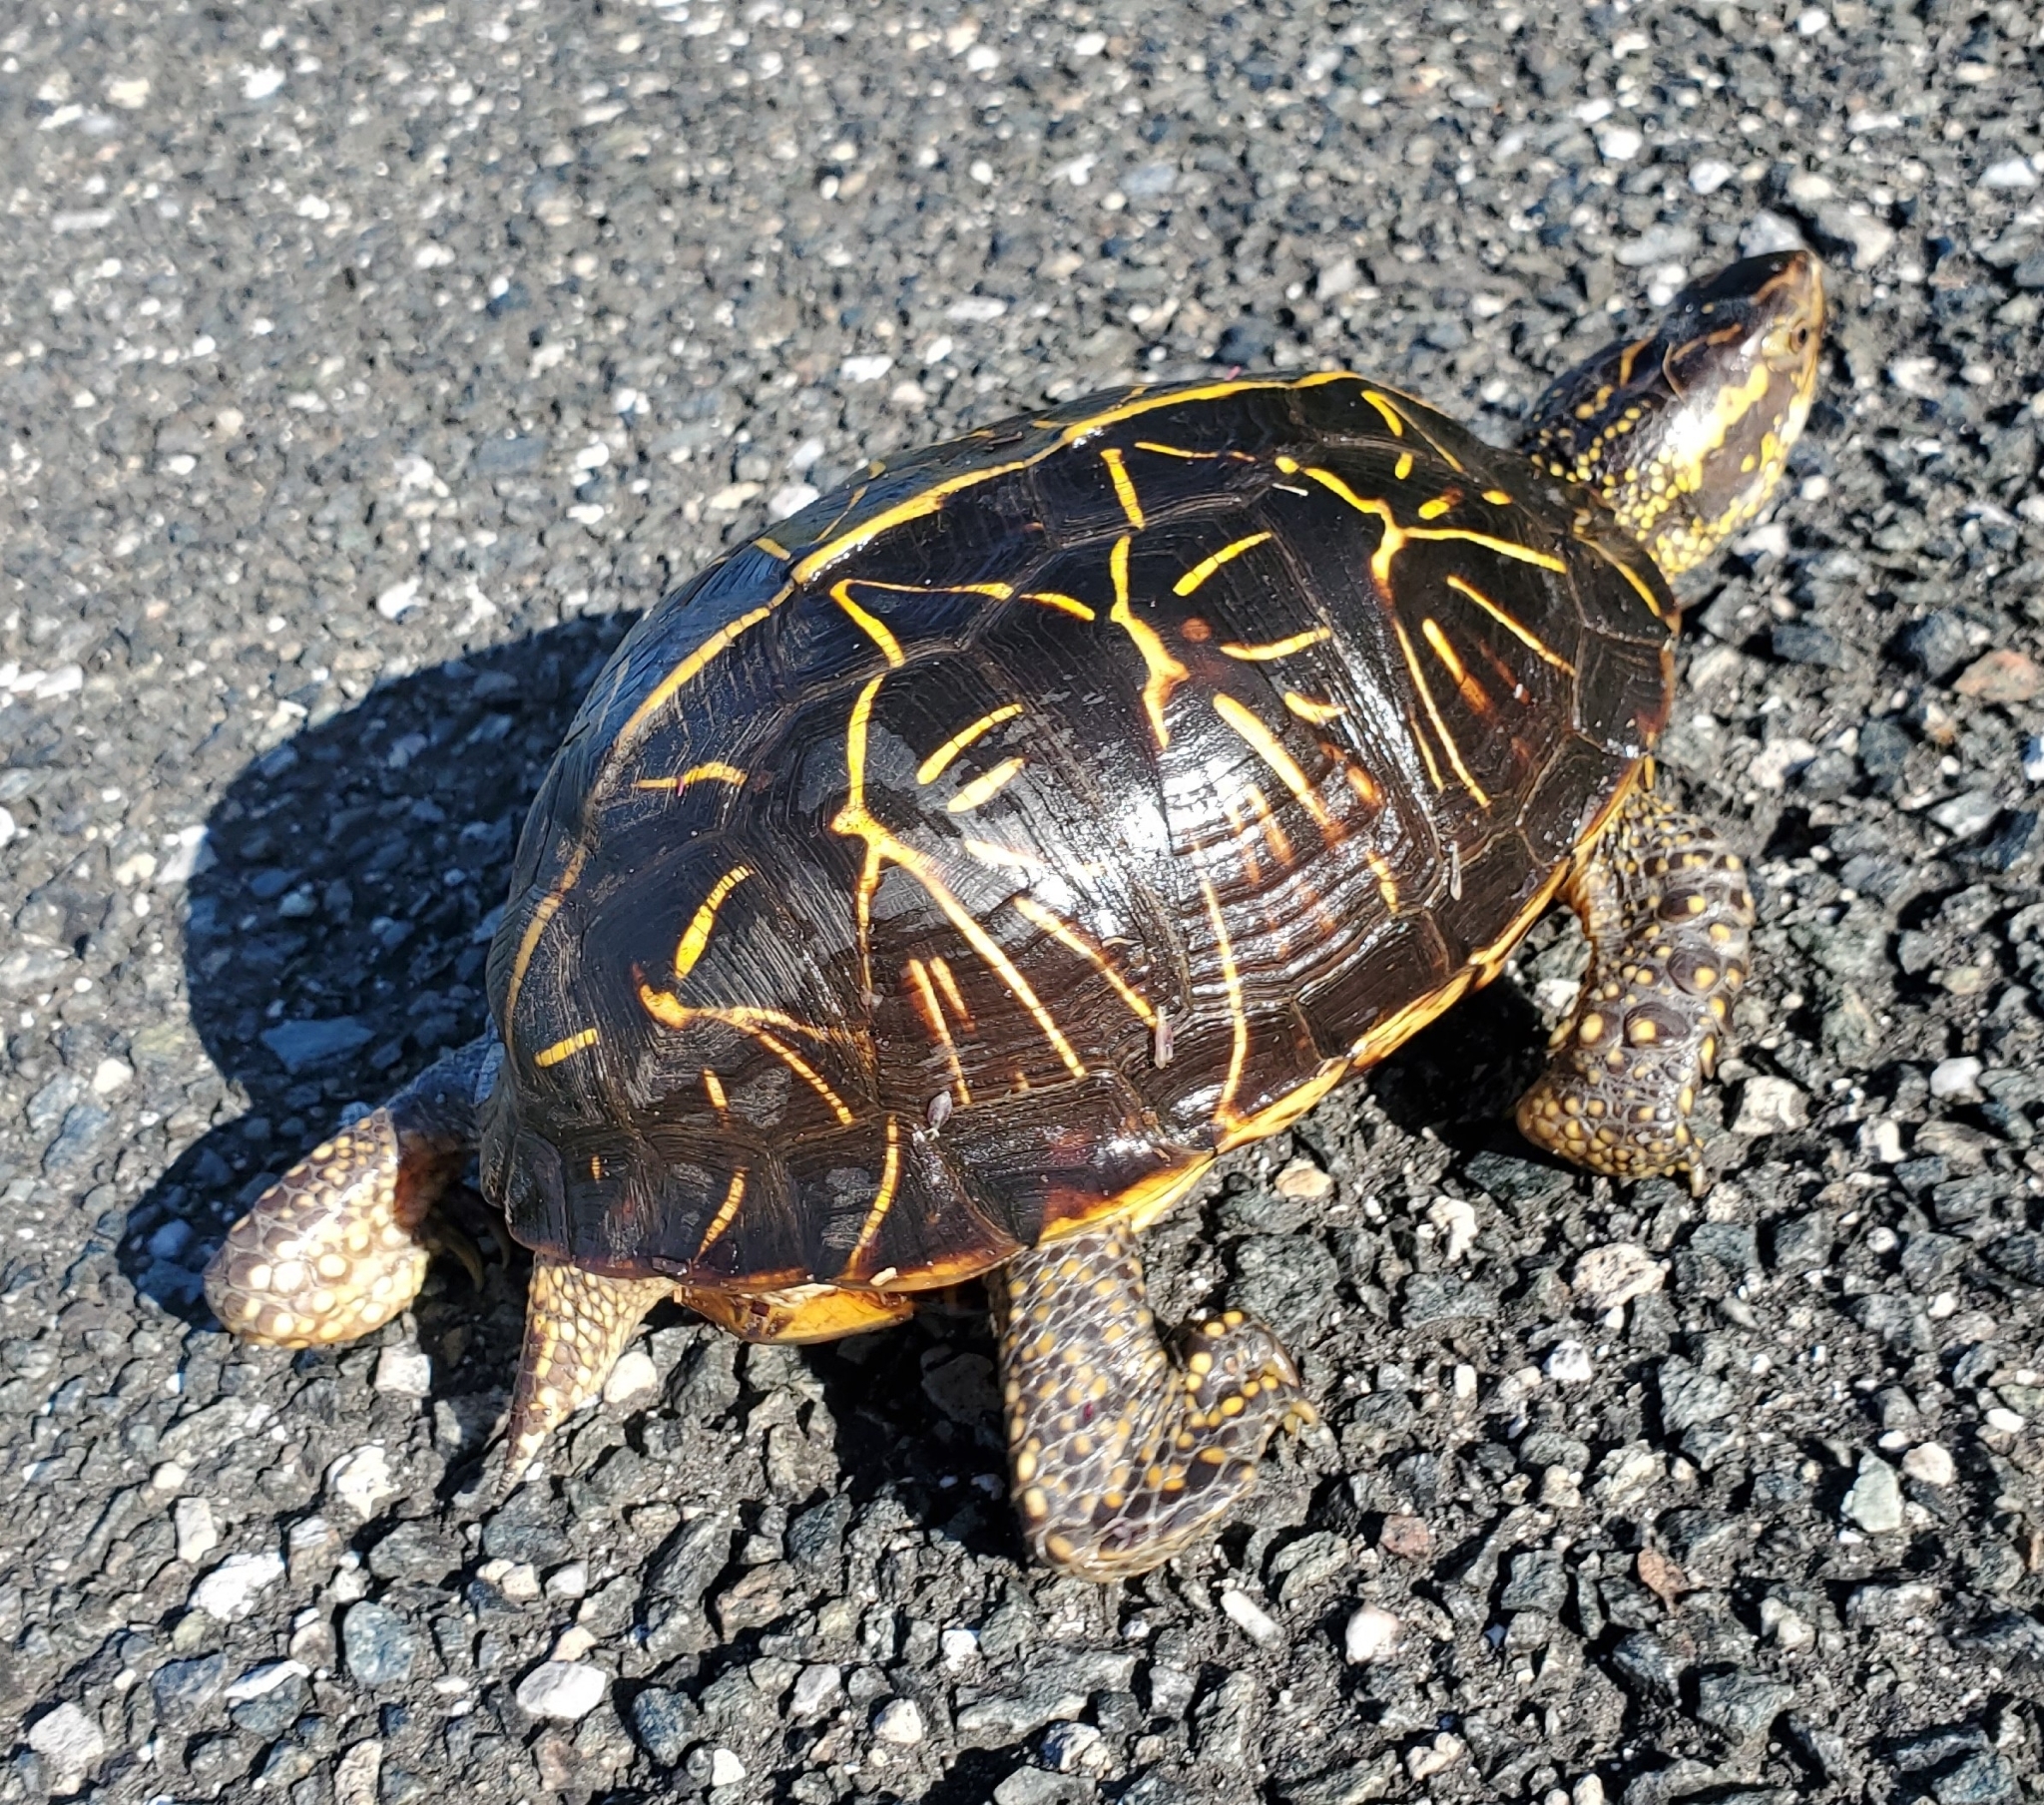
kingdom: Animalia
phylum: Chordata
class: Testudines
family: Emydidae
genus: Terrapene
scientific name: Terrapene carolina
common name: Common box turtle
